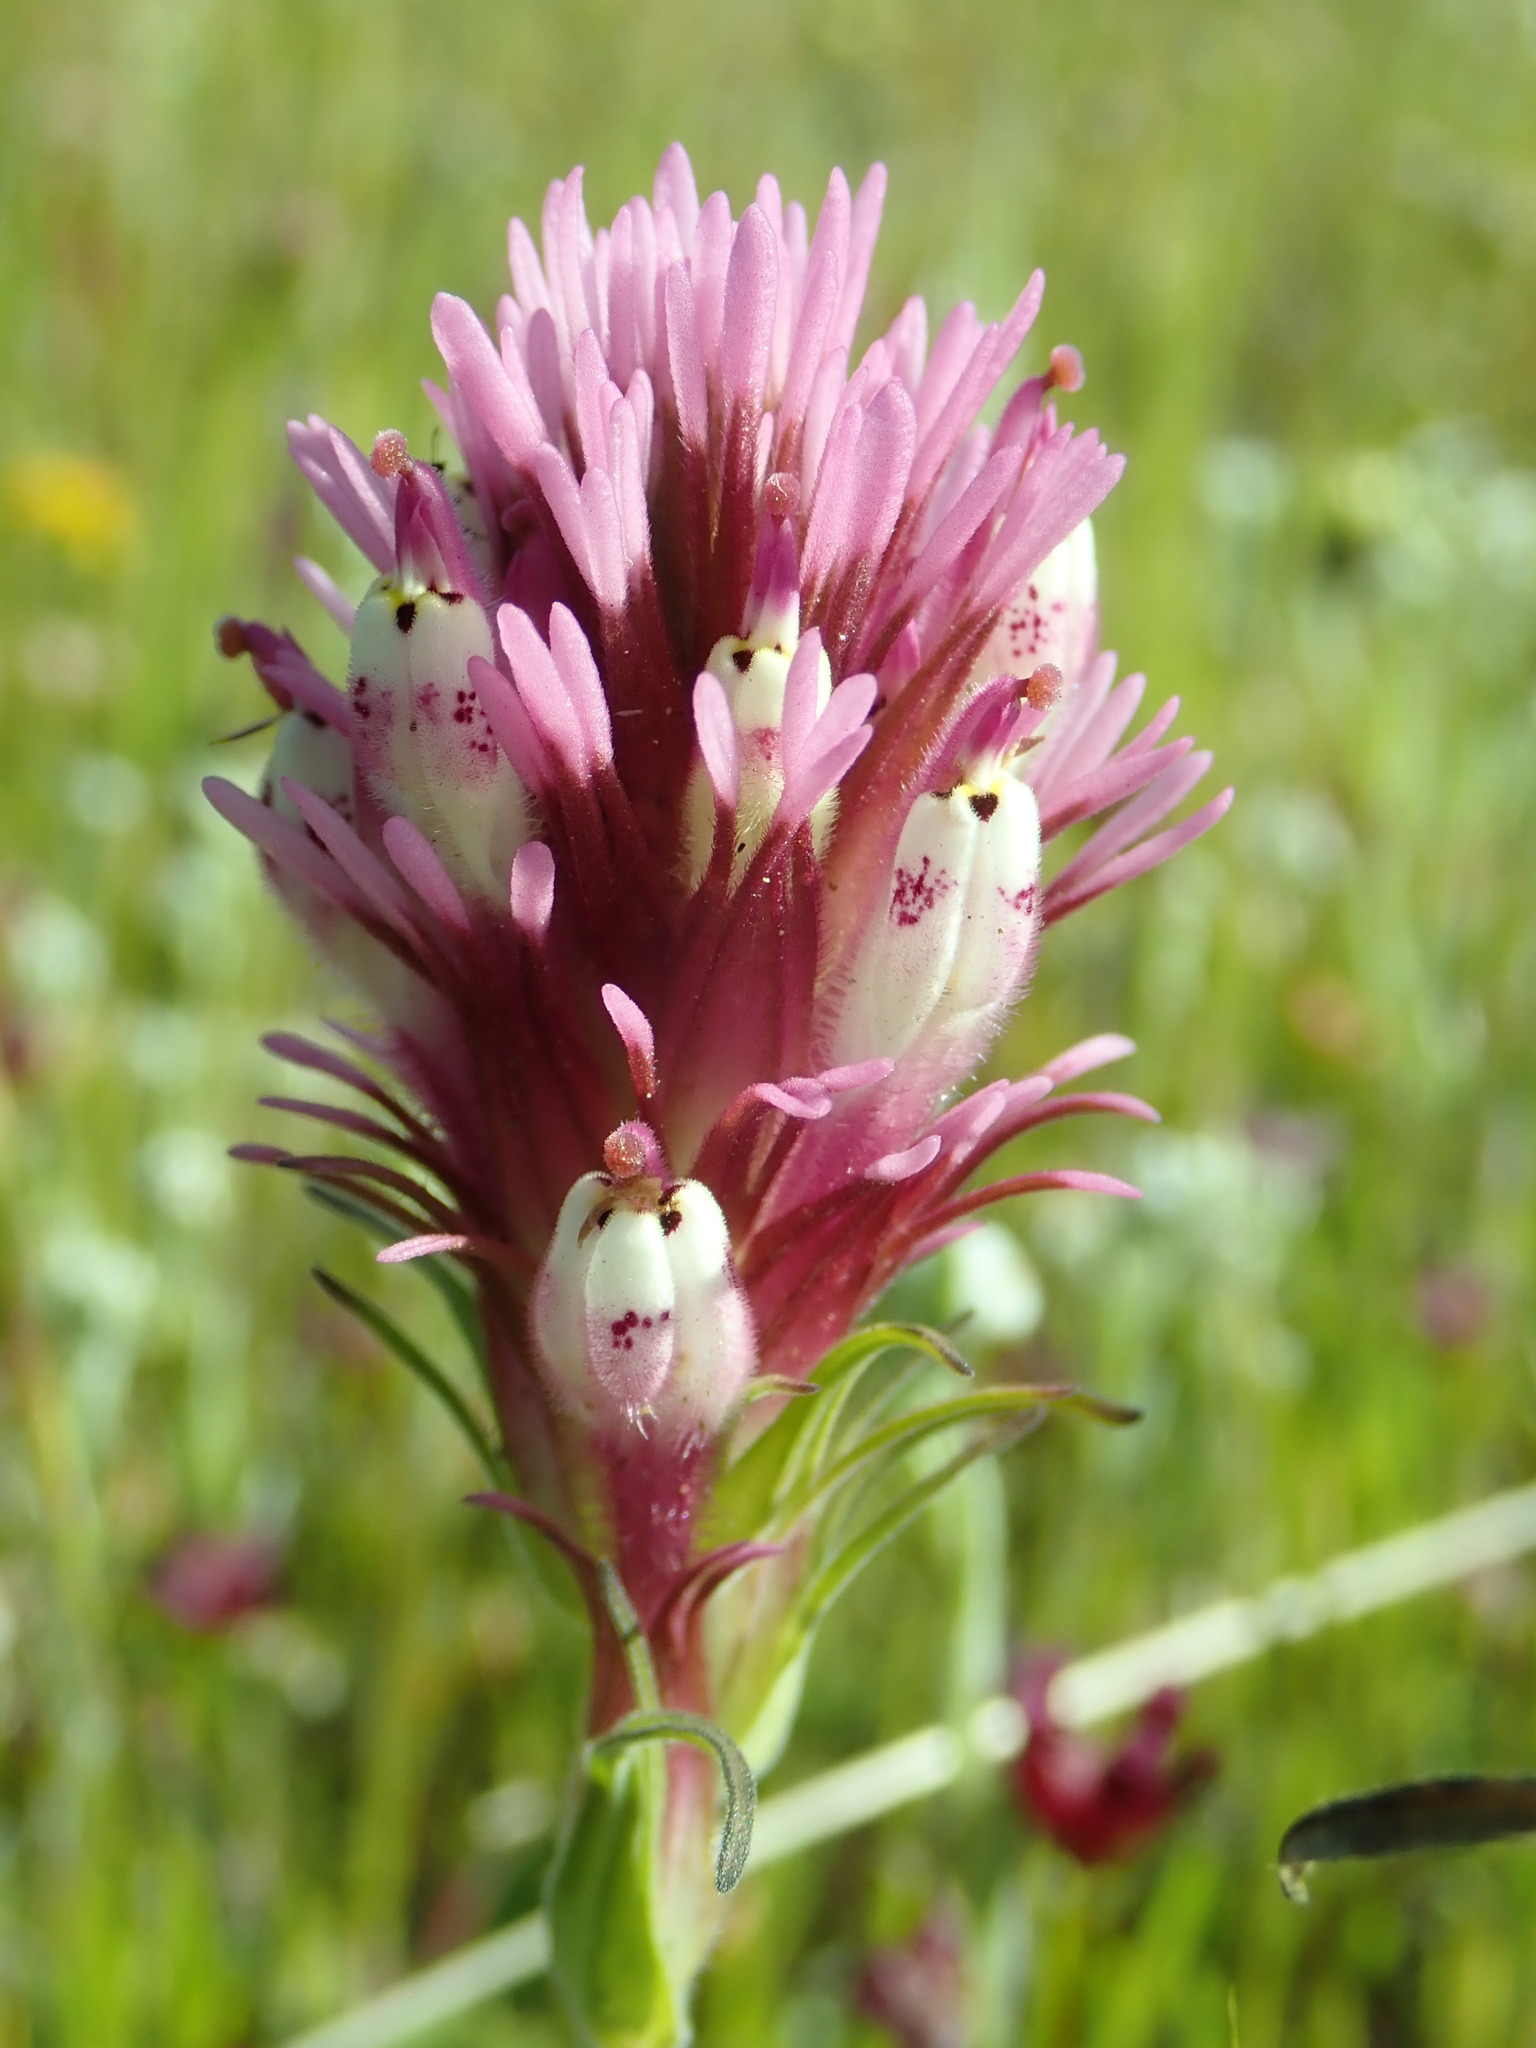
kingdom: Plantae
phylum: Tracheophyta
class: Magnoliopsida
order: Lamiales
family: Orobanchaceae
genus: Castilleja
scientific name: Castilleja densiflora
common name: Dense-flower indian paintbrush
